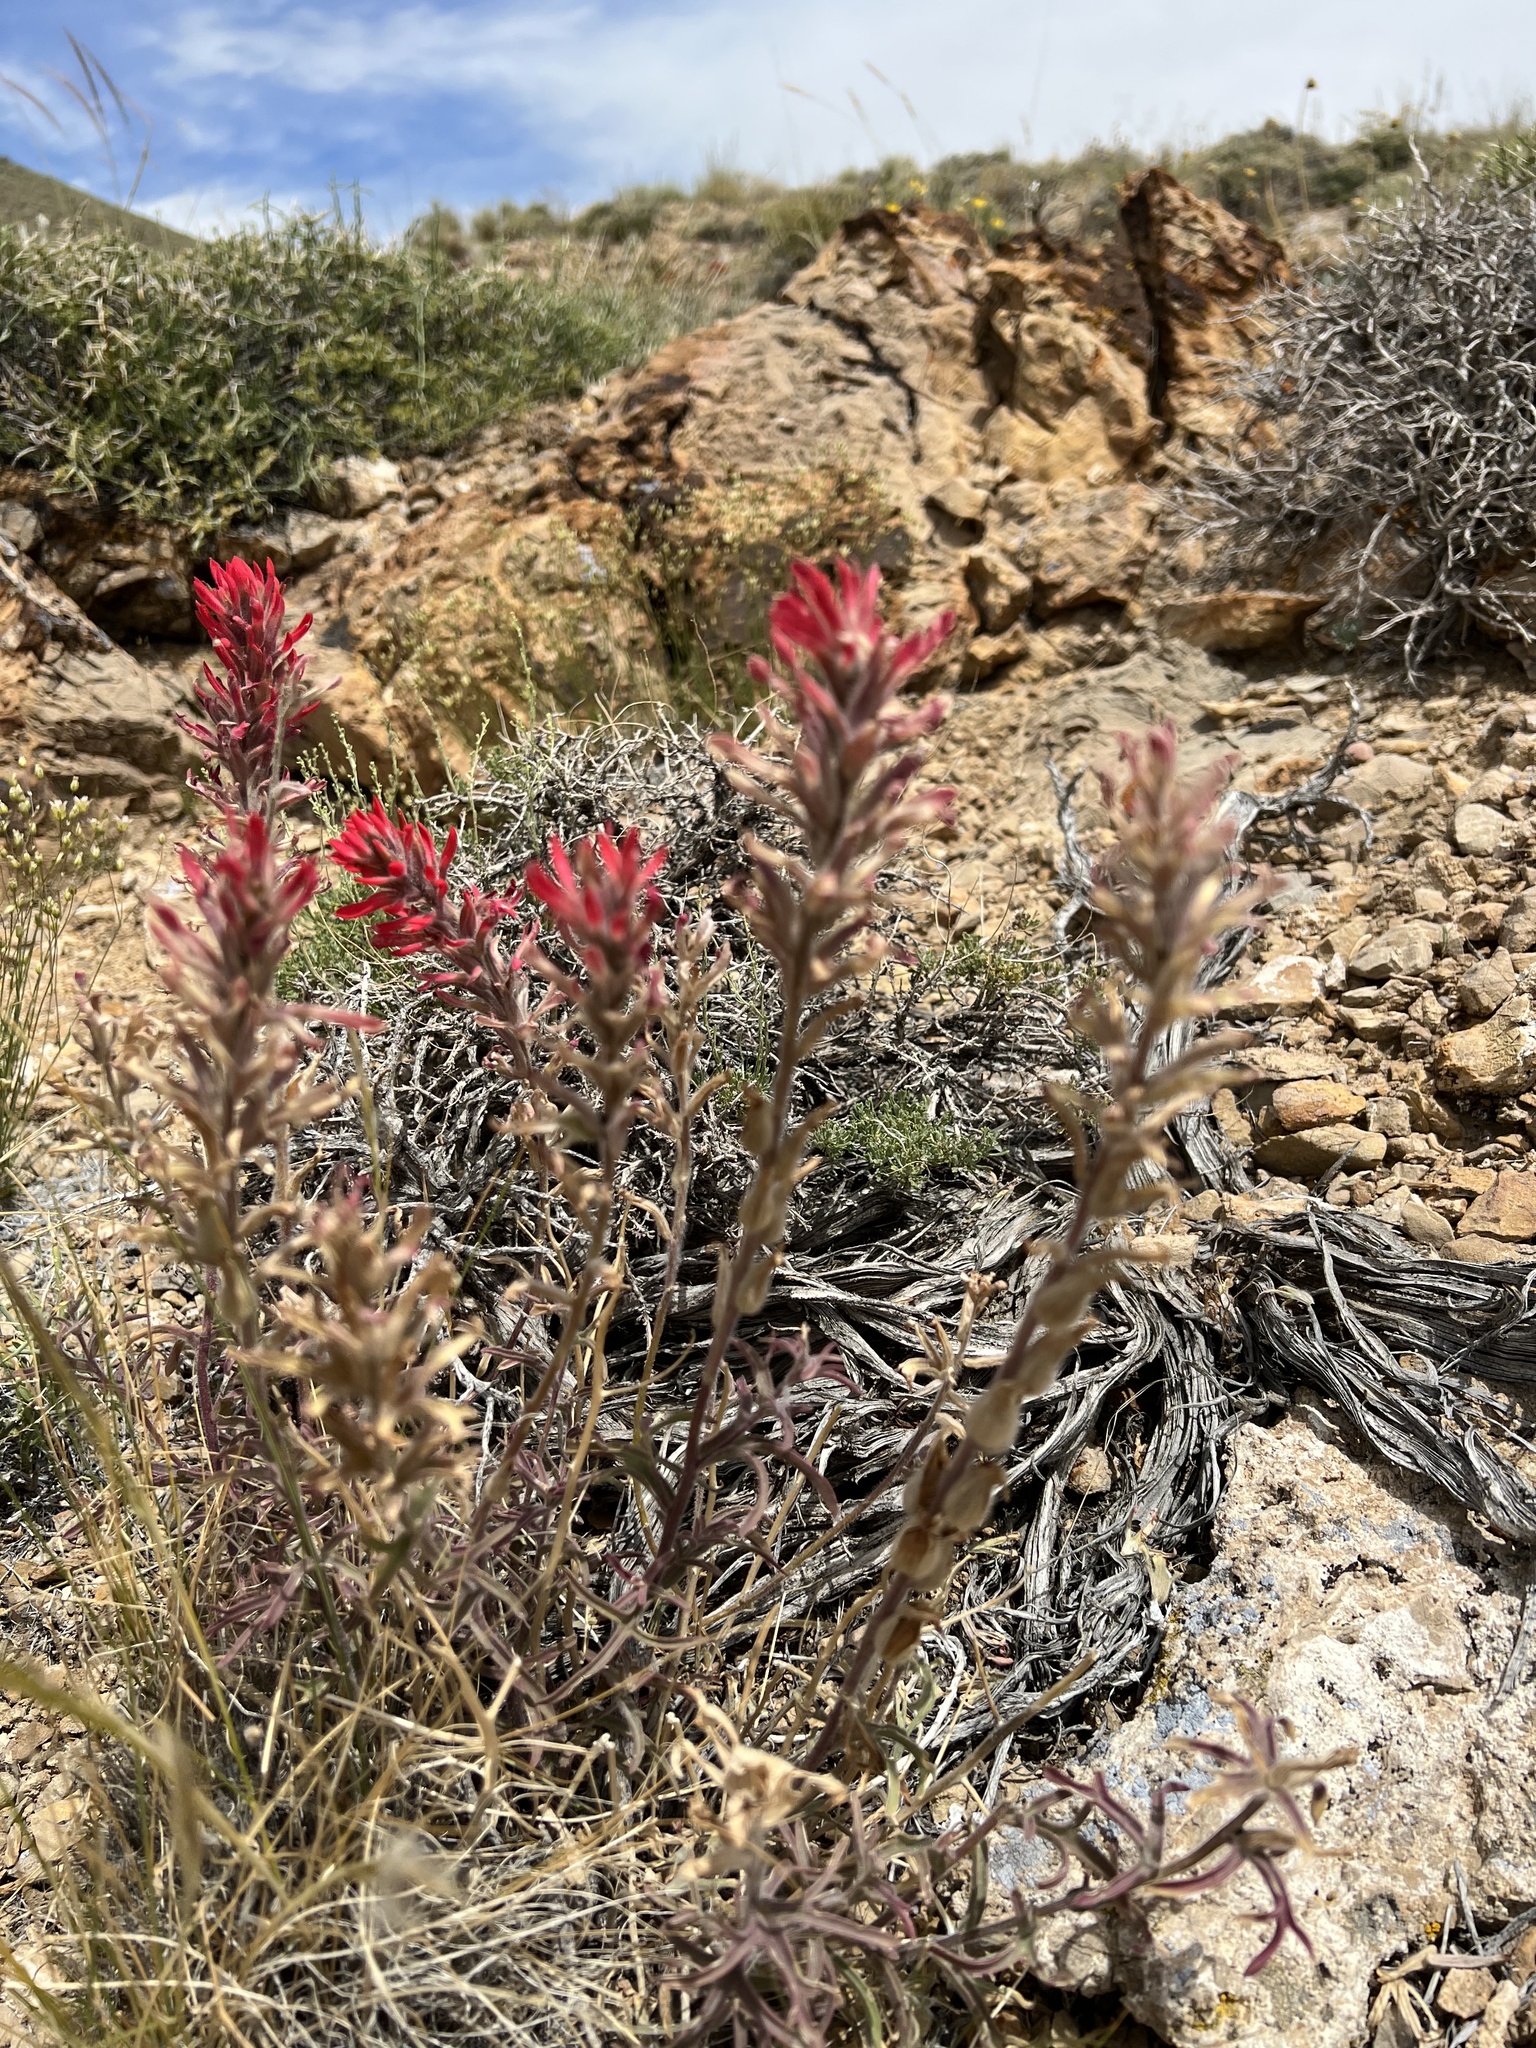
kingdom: Plantae
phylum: Tracheophyta
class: Magnoliopsida
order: Lamiales
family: Orobanchaceae
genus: Castilleja
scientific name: Castilleja chromosa
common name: Desert paintbrush
